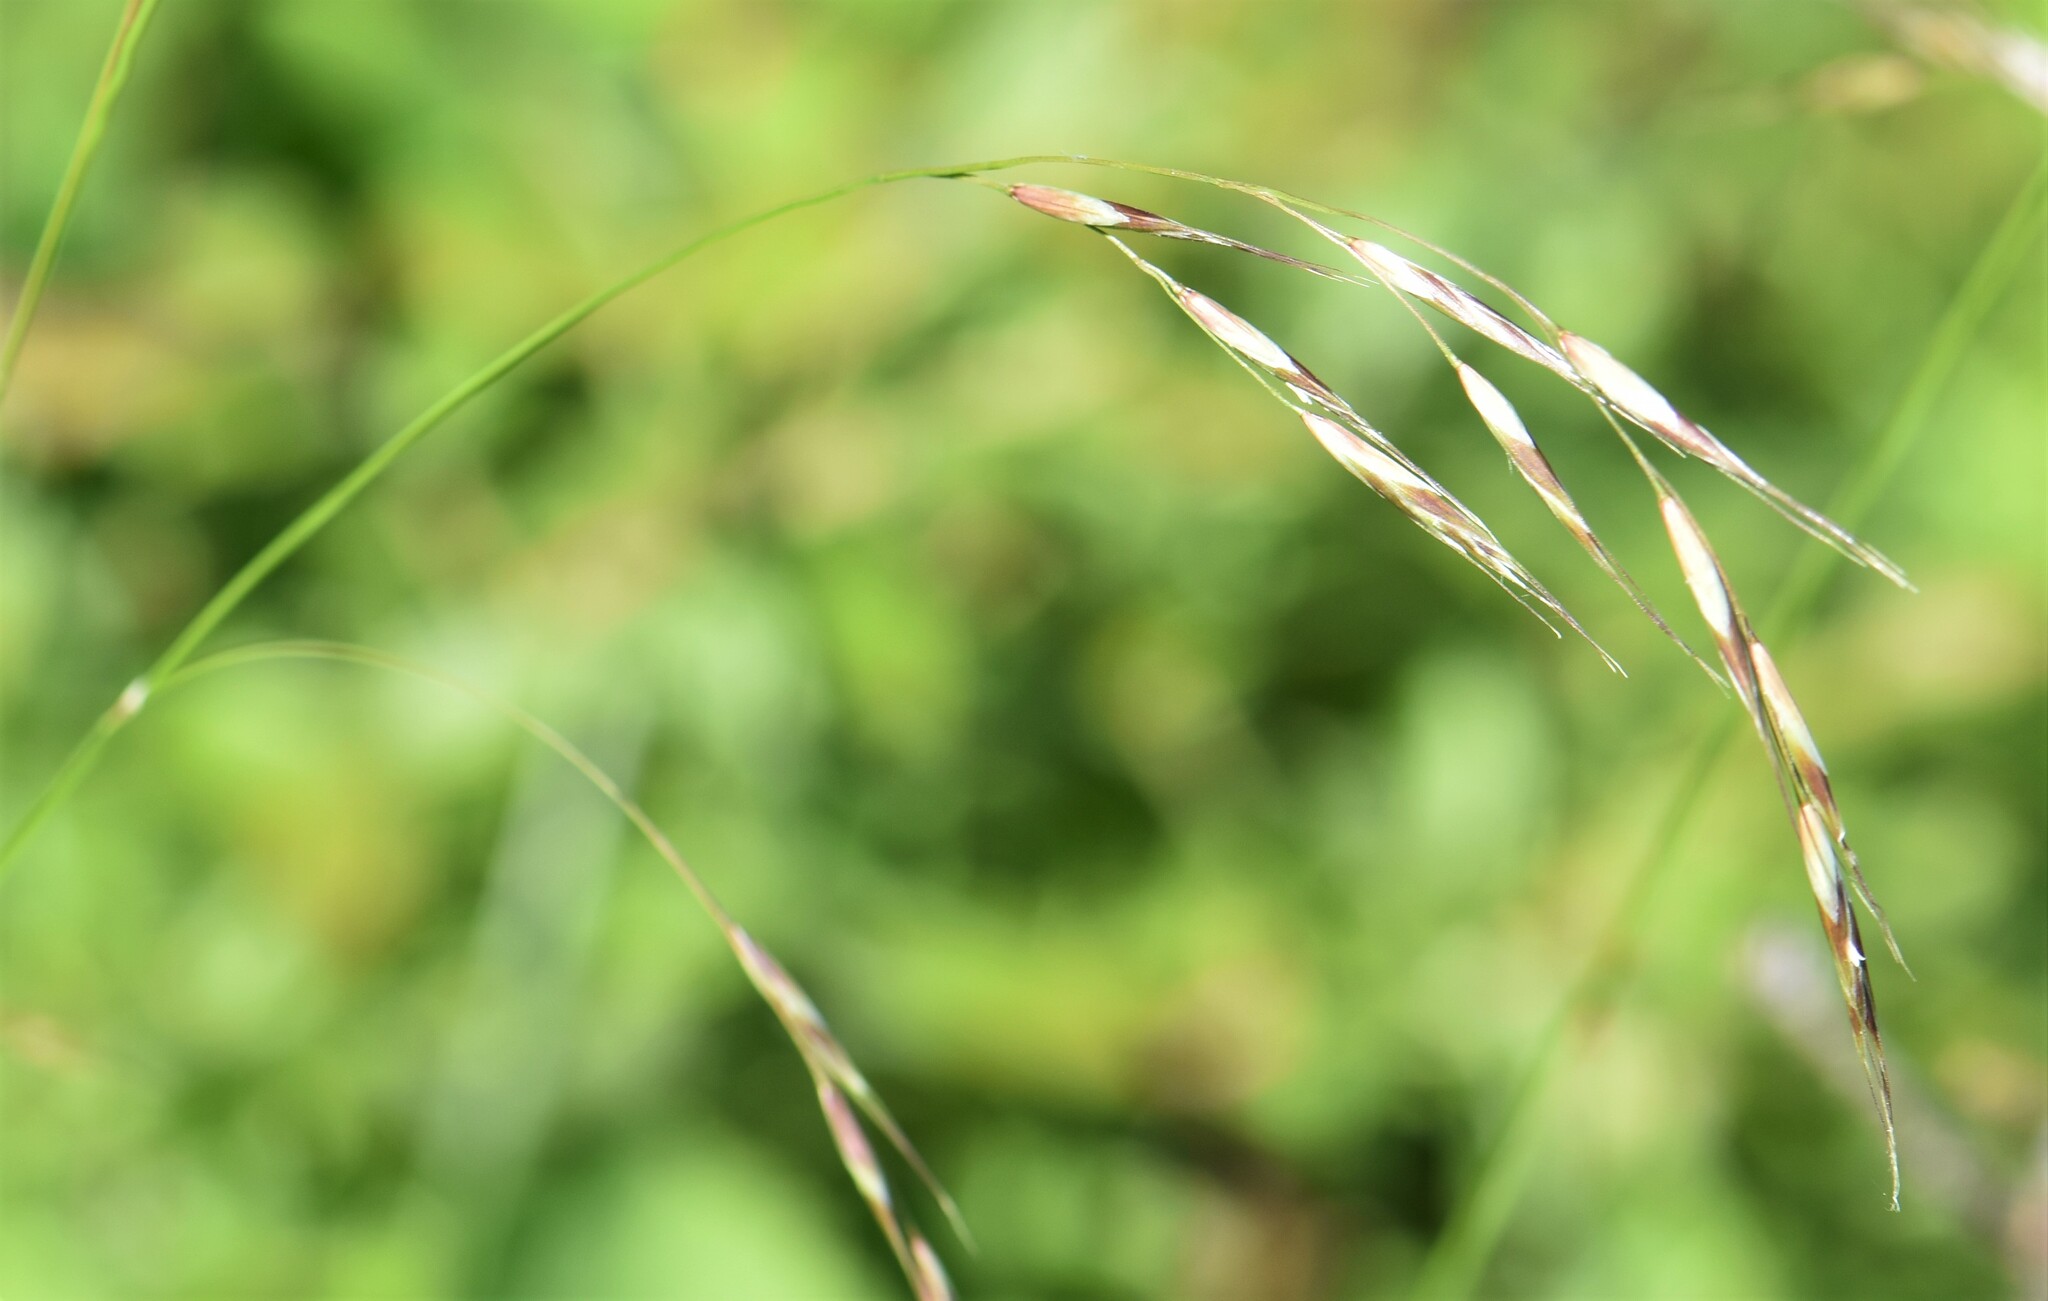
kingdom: Plantae
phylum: Tracheophyta
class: Liliopsida
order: Poales
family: Poaceae
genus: Schizachne
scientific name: Schizachne purpurascens
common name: False melic
